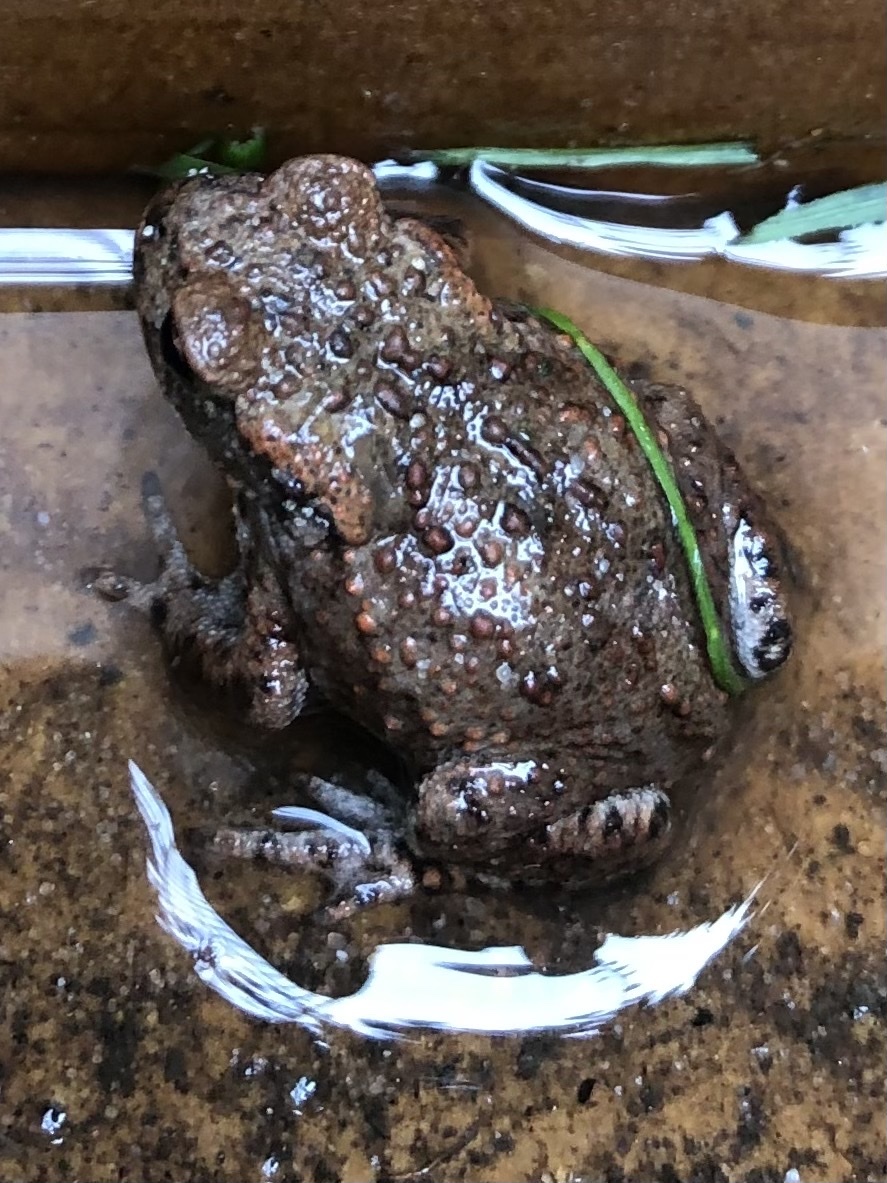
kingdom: Animalia
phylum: Chordata
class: Amphibia
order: Anura
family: Bufonidae
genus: Bufo
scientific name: Bufo bufo
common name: Common toad
